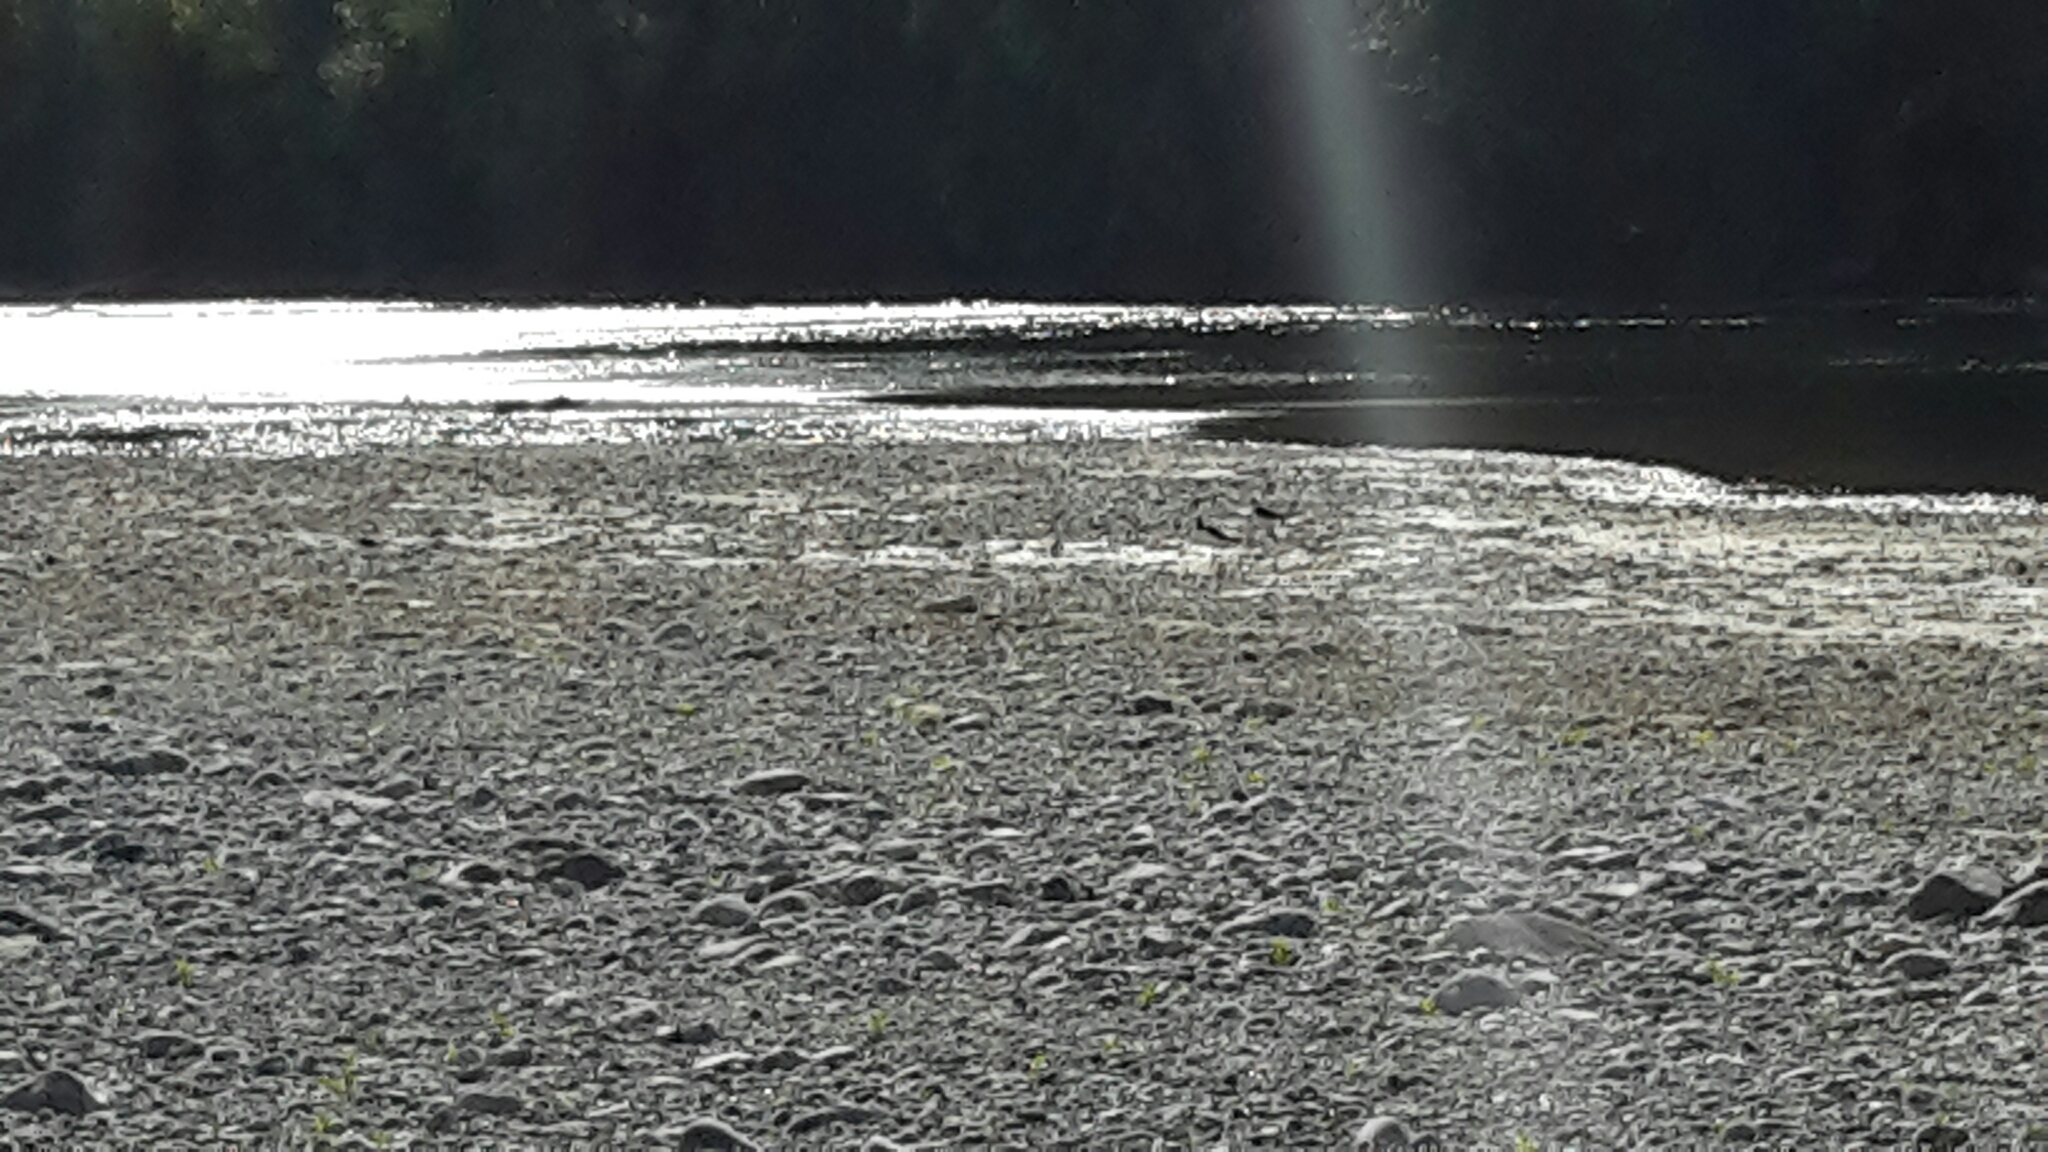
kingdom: Animalia
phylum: Chordata
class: Aves
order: Charadriiformes
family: Recurvirostridae
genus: Himantopus
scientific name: Himantopus leucocephalus
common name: White-headed stilt
